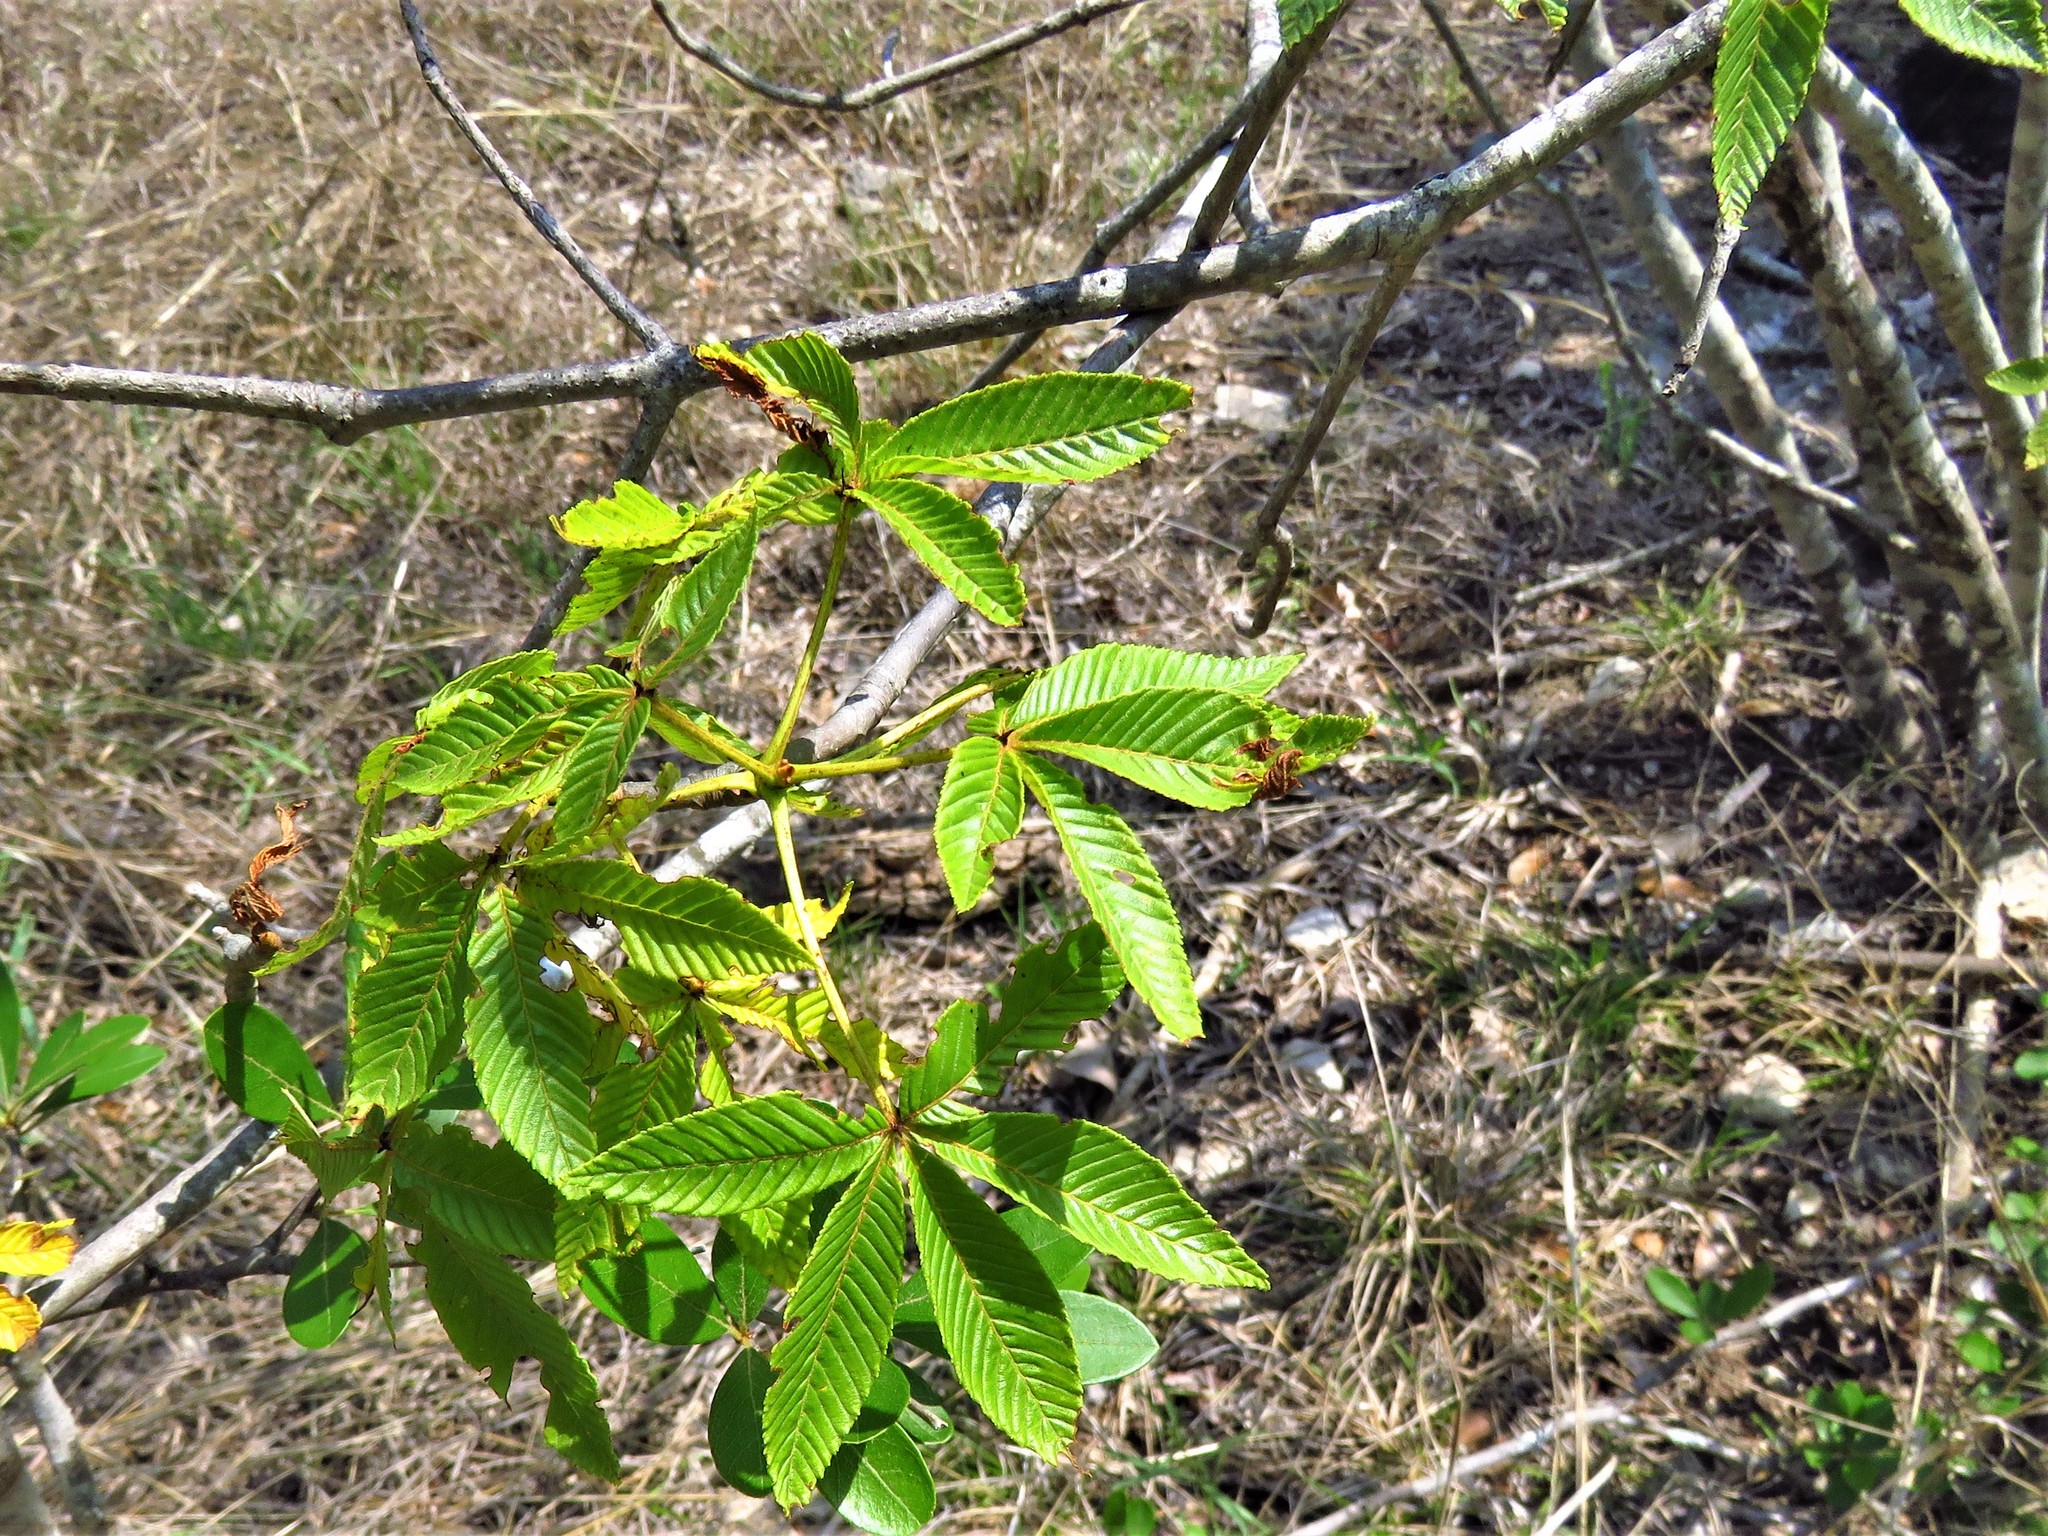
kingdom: Plantae
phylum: Tracheophyta
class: Magnoliopsida
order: Sapindales
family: Sapindaceae
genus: Aesculus
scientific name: Aesculus pavia
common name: Red buckeye
